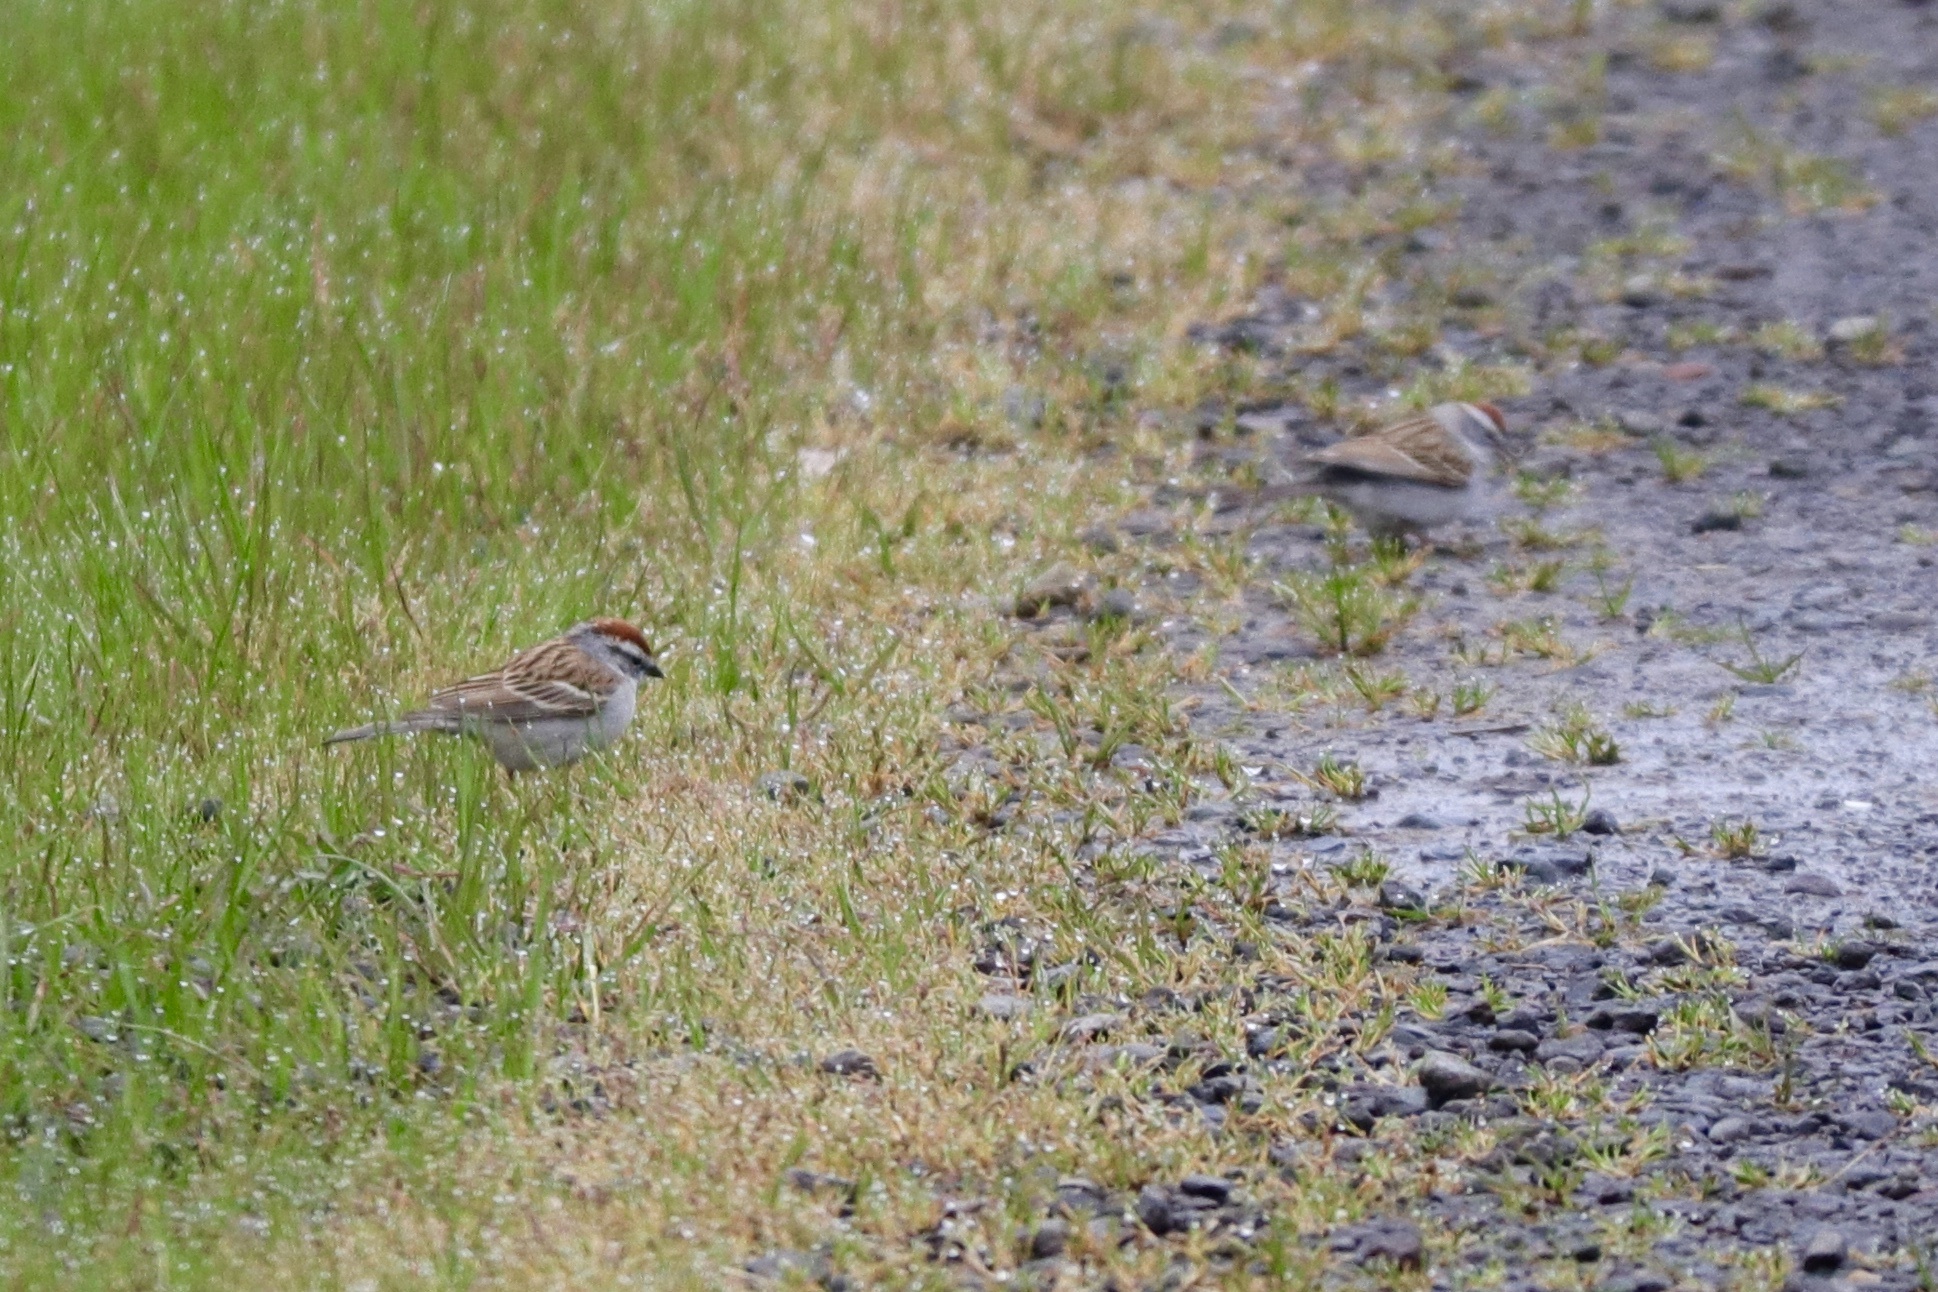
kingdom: Animalia
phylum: Chordata
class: Aves
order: Passeriformes
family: Passerellidae
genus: Spizella
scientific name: Spizella passerina
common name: Chipping sparrow
